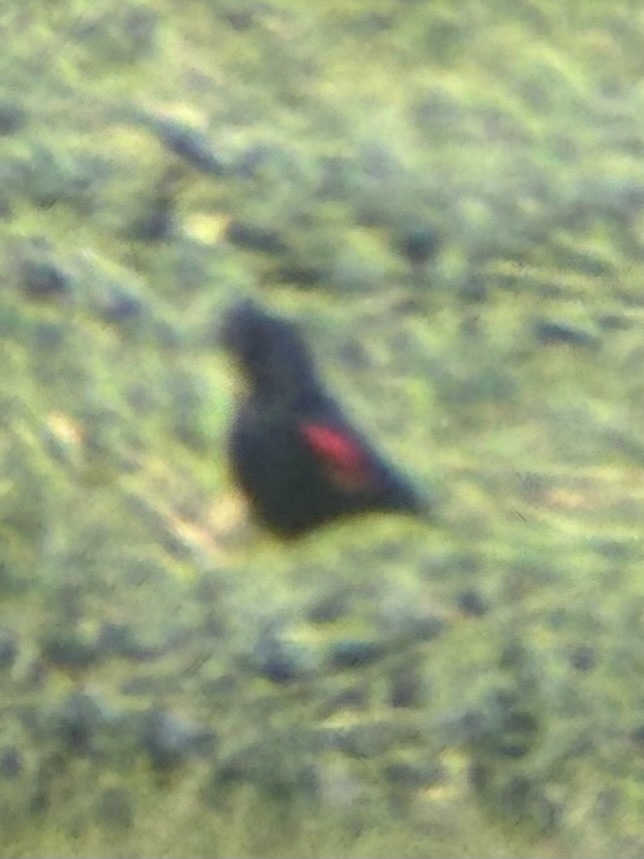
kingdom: Animalia
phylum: Chordata
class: Aves
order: Passeriformes
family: Icteridae
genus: Agelaius
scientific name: Agelaius phoeniceus
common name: Red-winged blackbird
